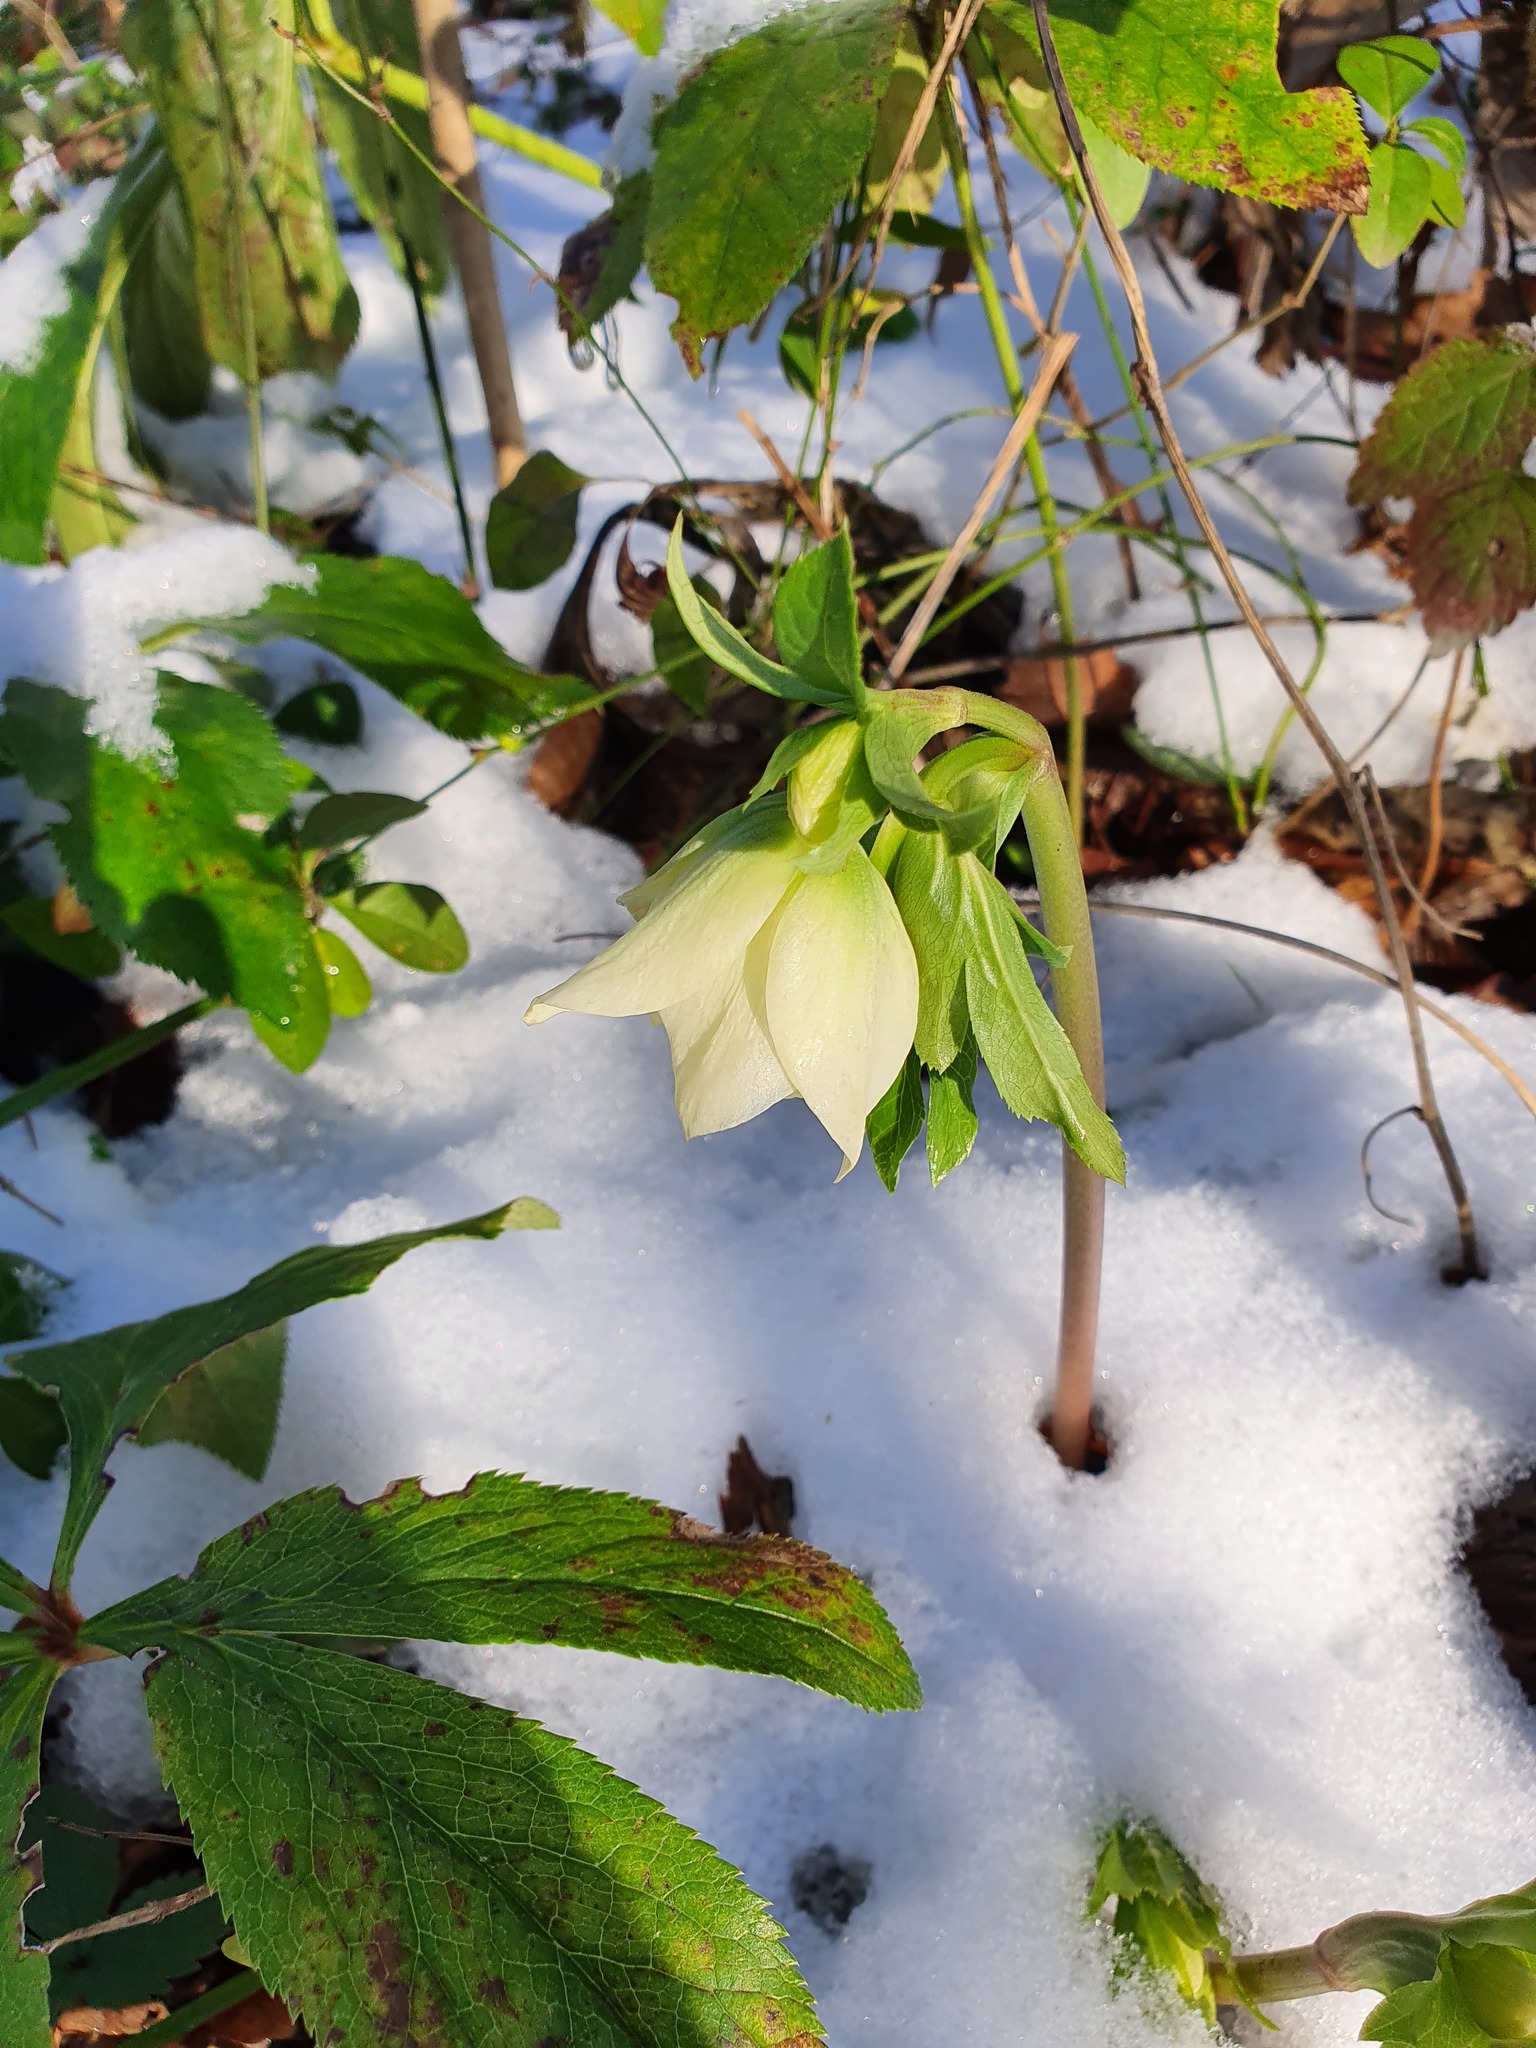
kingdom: Plantae
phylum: Tracheophyta
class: Magnoliopsida
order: Ranunculales
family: Ranunculaceae
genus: Helleborus
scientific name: Helleborus orientalis
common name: Lenten-rose
